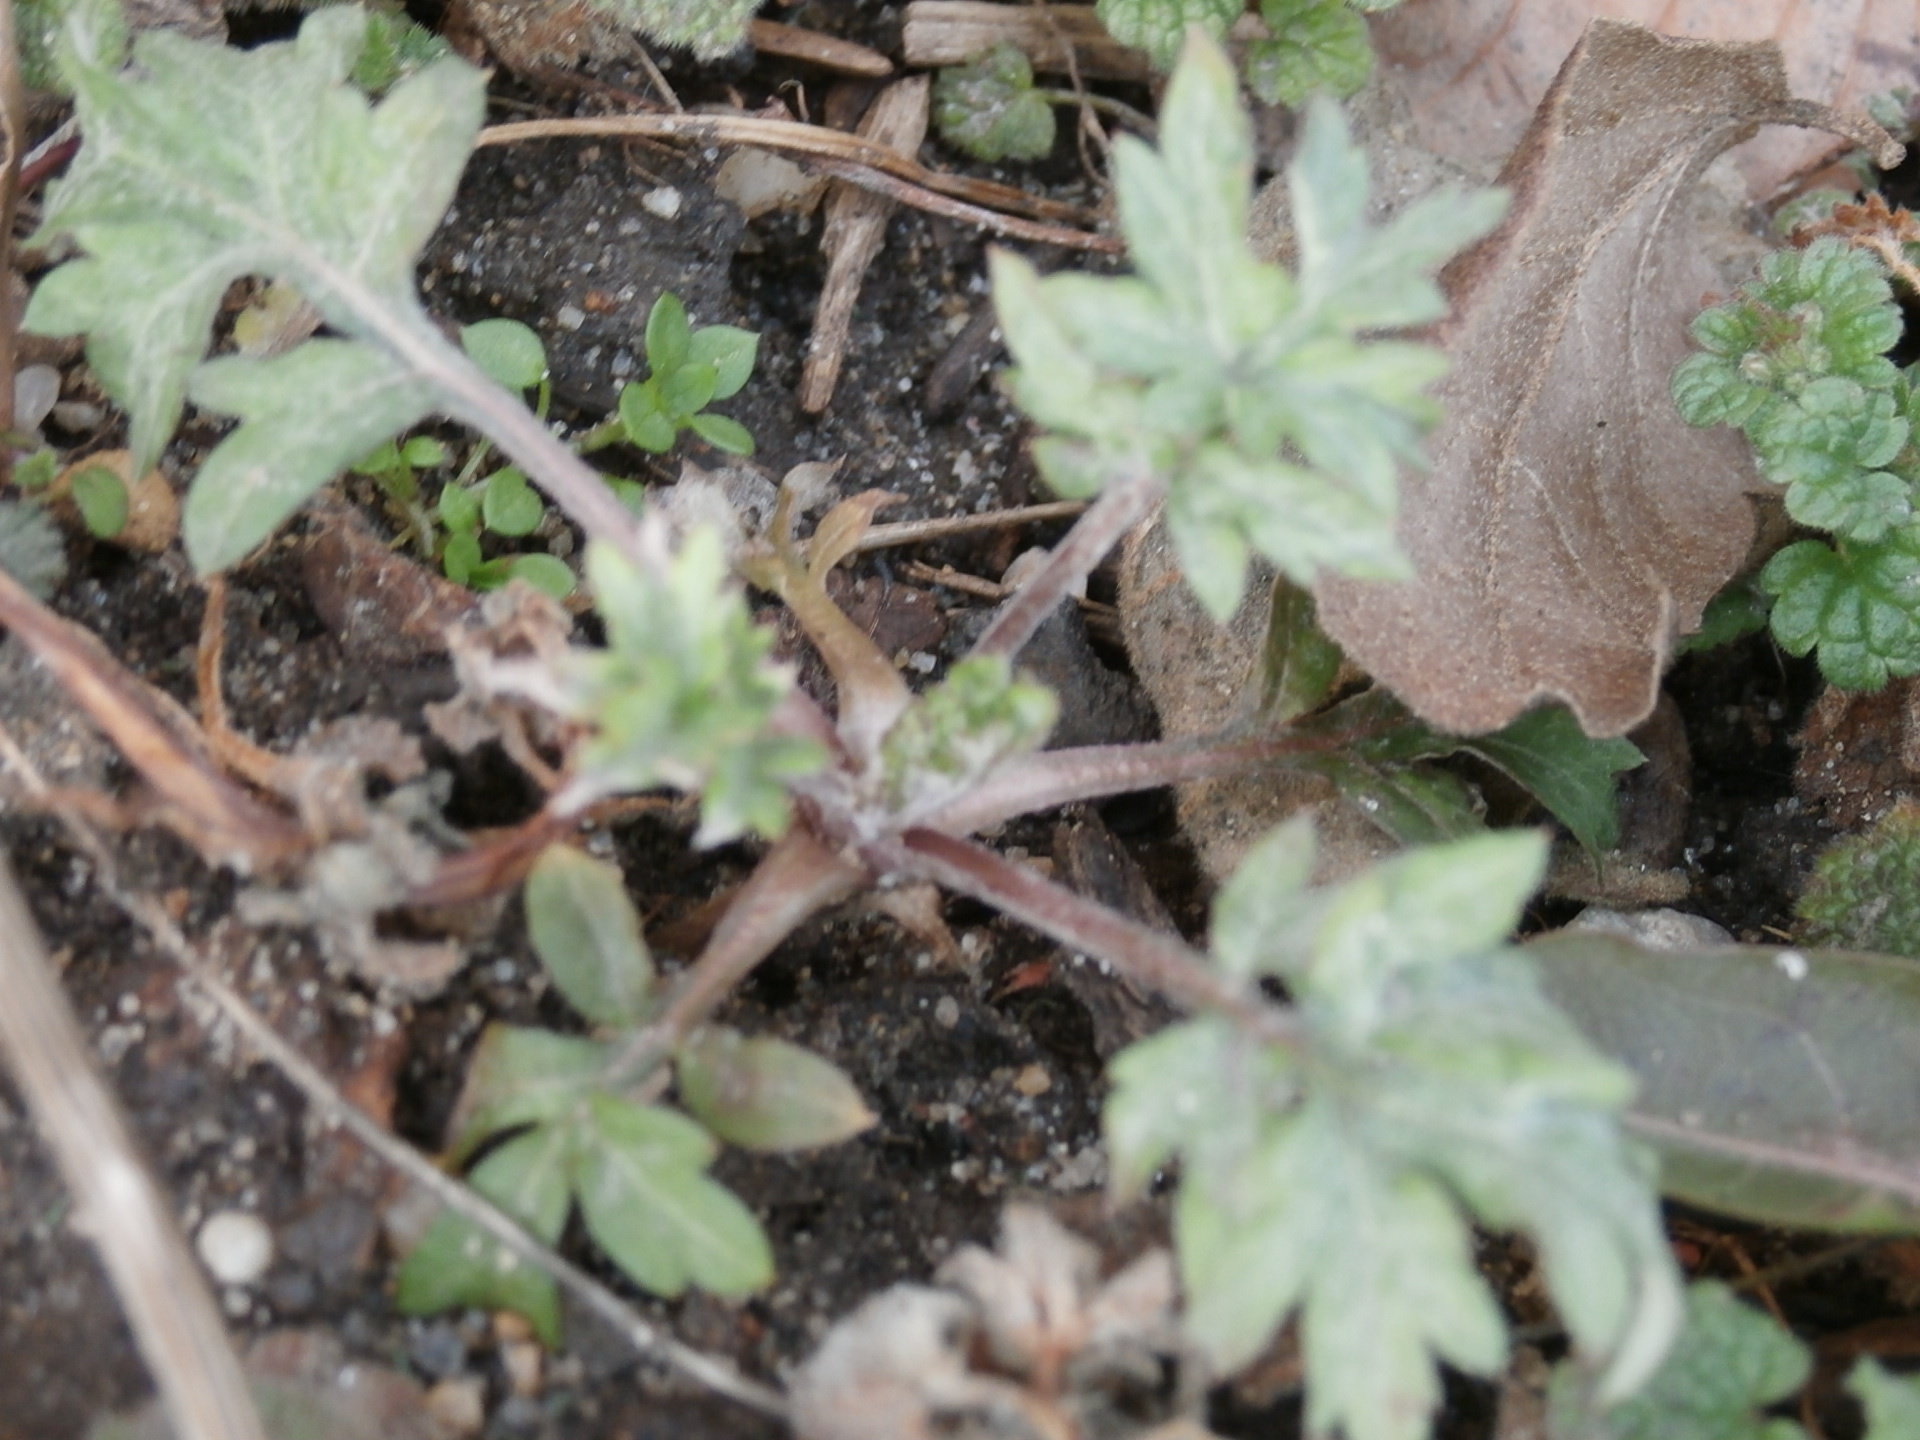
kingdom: Plantae
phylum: Tracheophyta
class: Magnoliopsida
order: Asterales
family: Asteraceae
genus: Artemisia
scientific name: Artemisia vulgaris
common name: Mugwort
